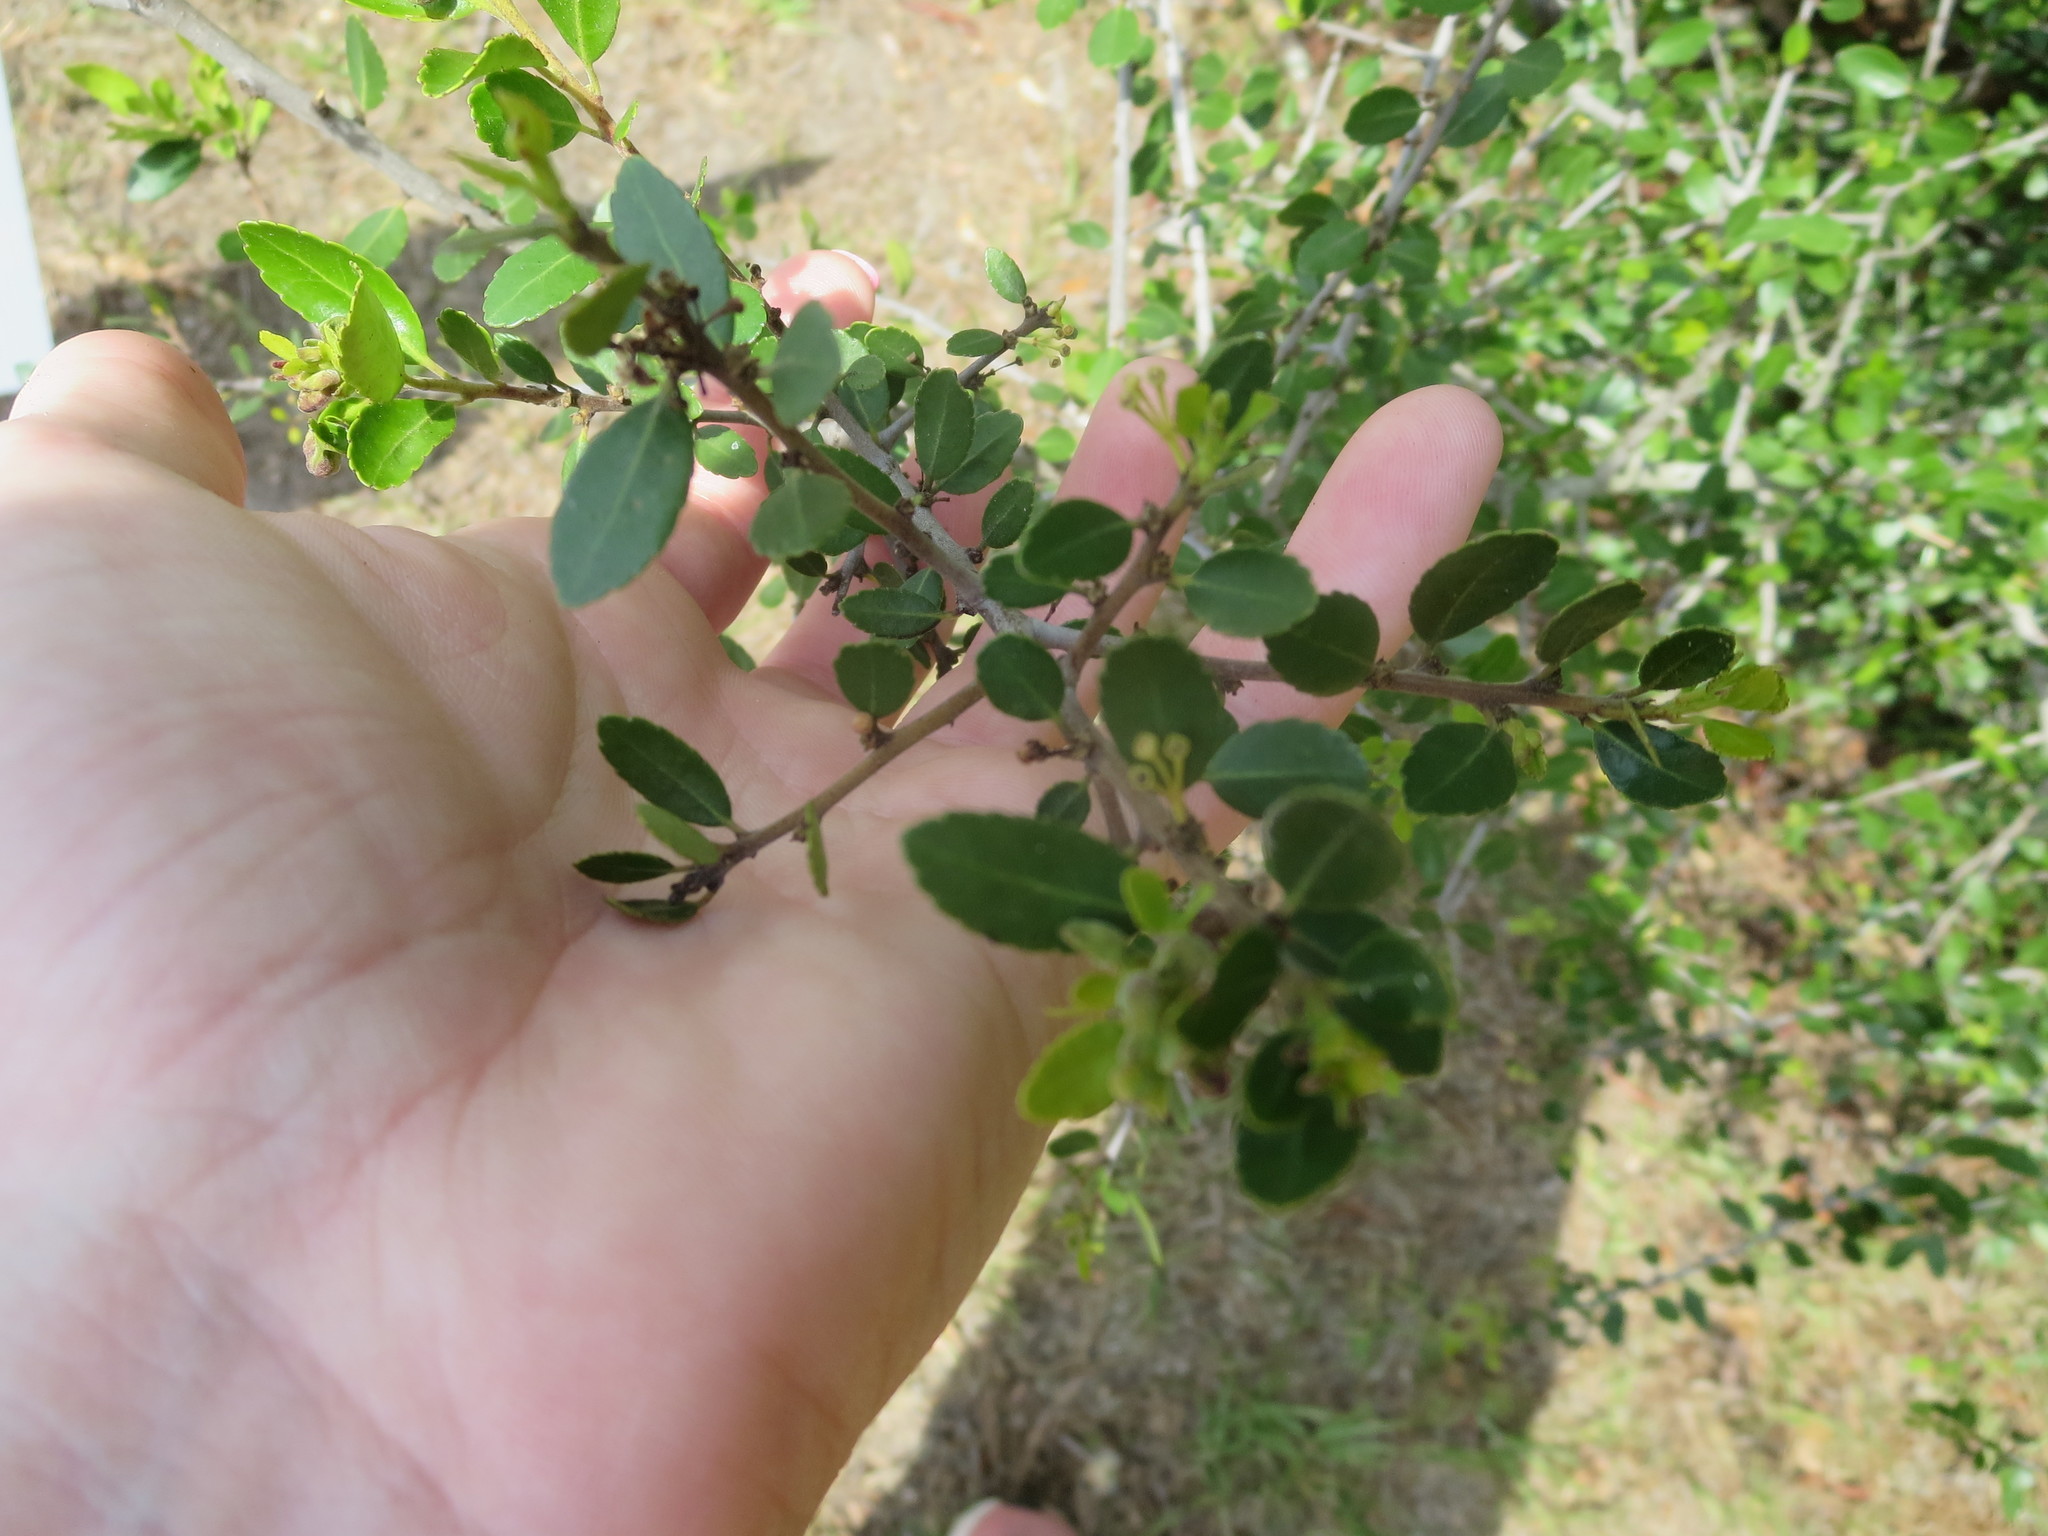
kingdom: Plantae
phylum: Tracheophyta
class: Magnoliopsida
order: Aquifoliales
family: Aquifoliaceae
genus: Ilex
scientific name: Ilex vomitoria
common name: Yaupon holly
